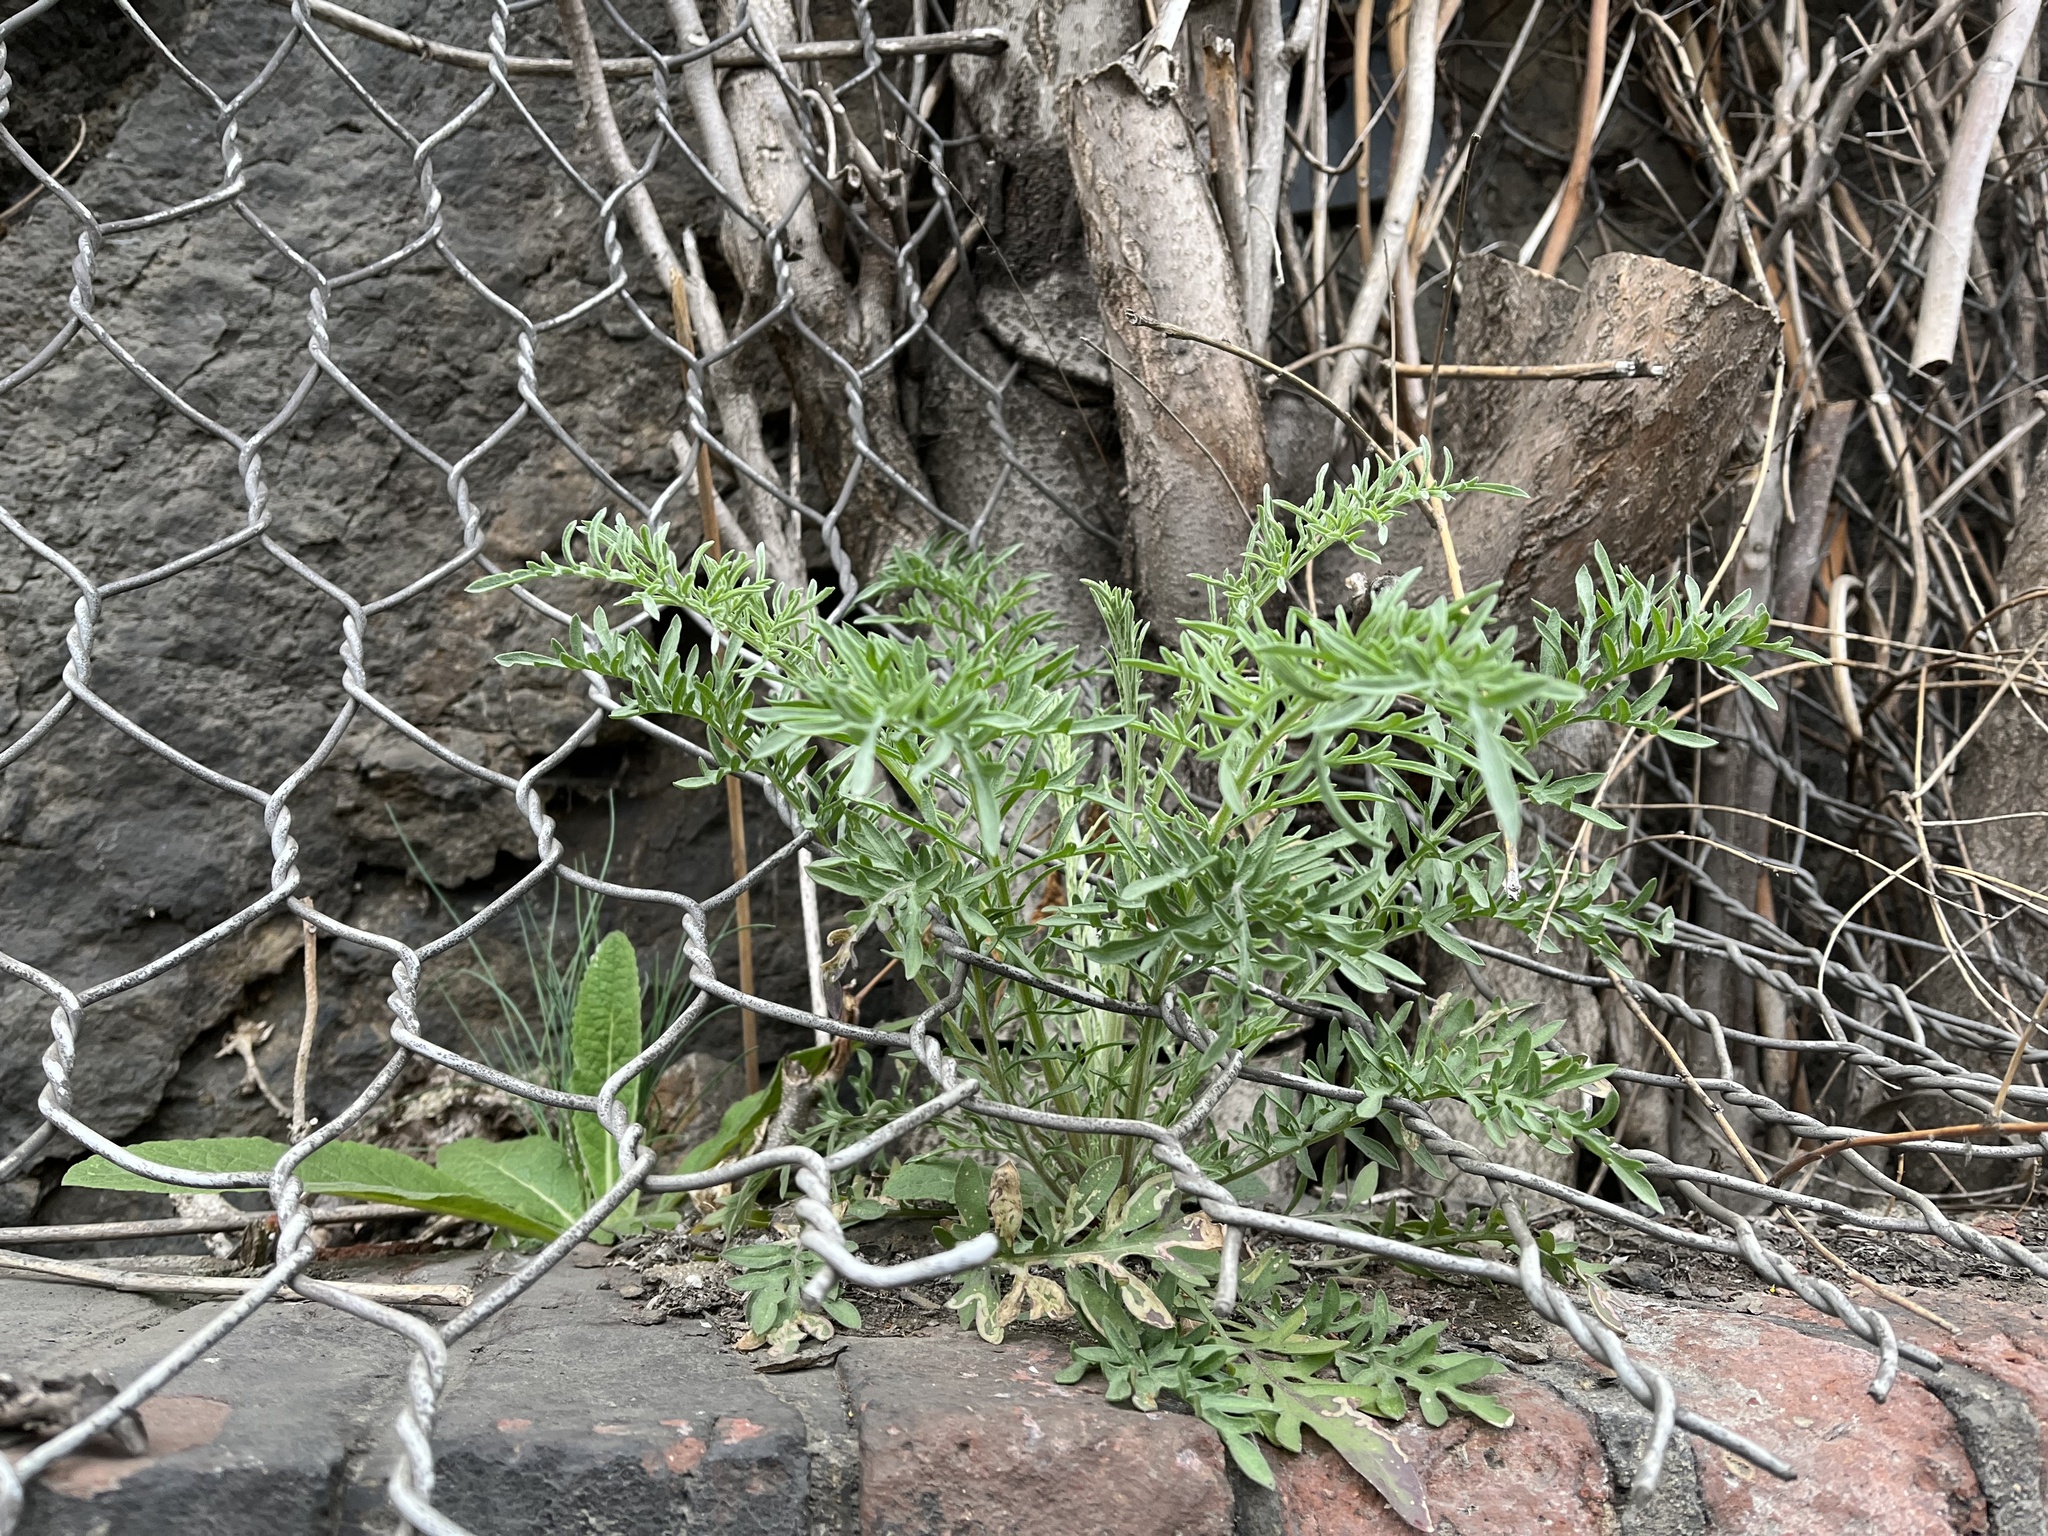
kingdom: Plantae
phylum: Tracheophyta
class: Magnoliopsida
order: Asterales
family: Asteraceae
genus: Centaurea
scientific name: Centaurea stoebe
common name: Spotted knapweed
